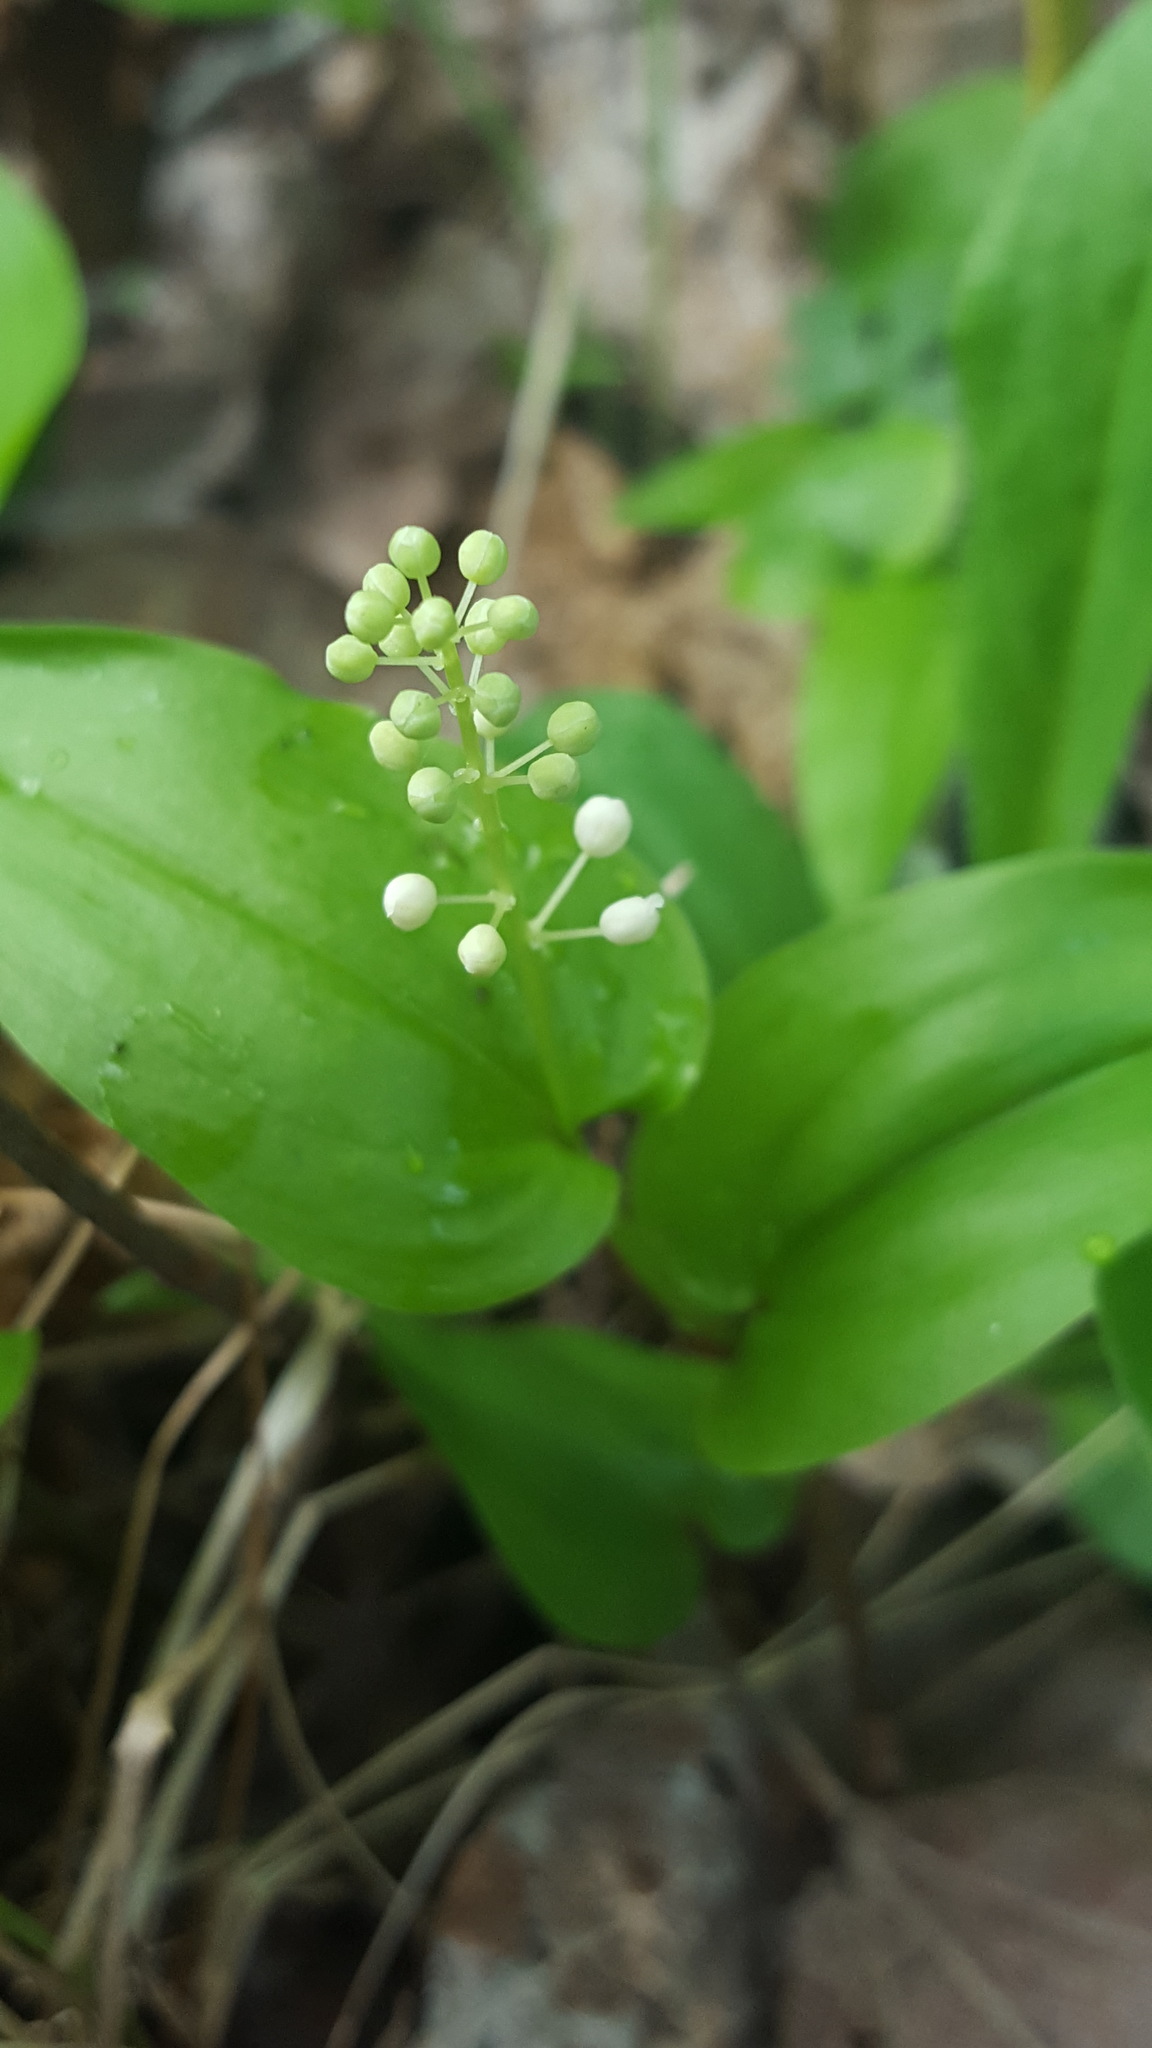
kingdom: Plantae
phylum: Tracheophyta
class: Liliopsida
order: Asparagales
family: Asparagaceae
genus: Maianthemum
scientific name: Maianthemum canadense
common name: False lily-of-the-valley
